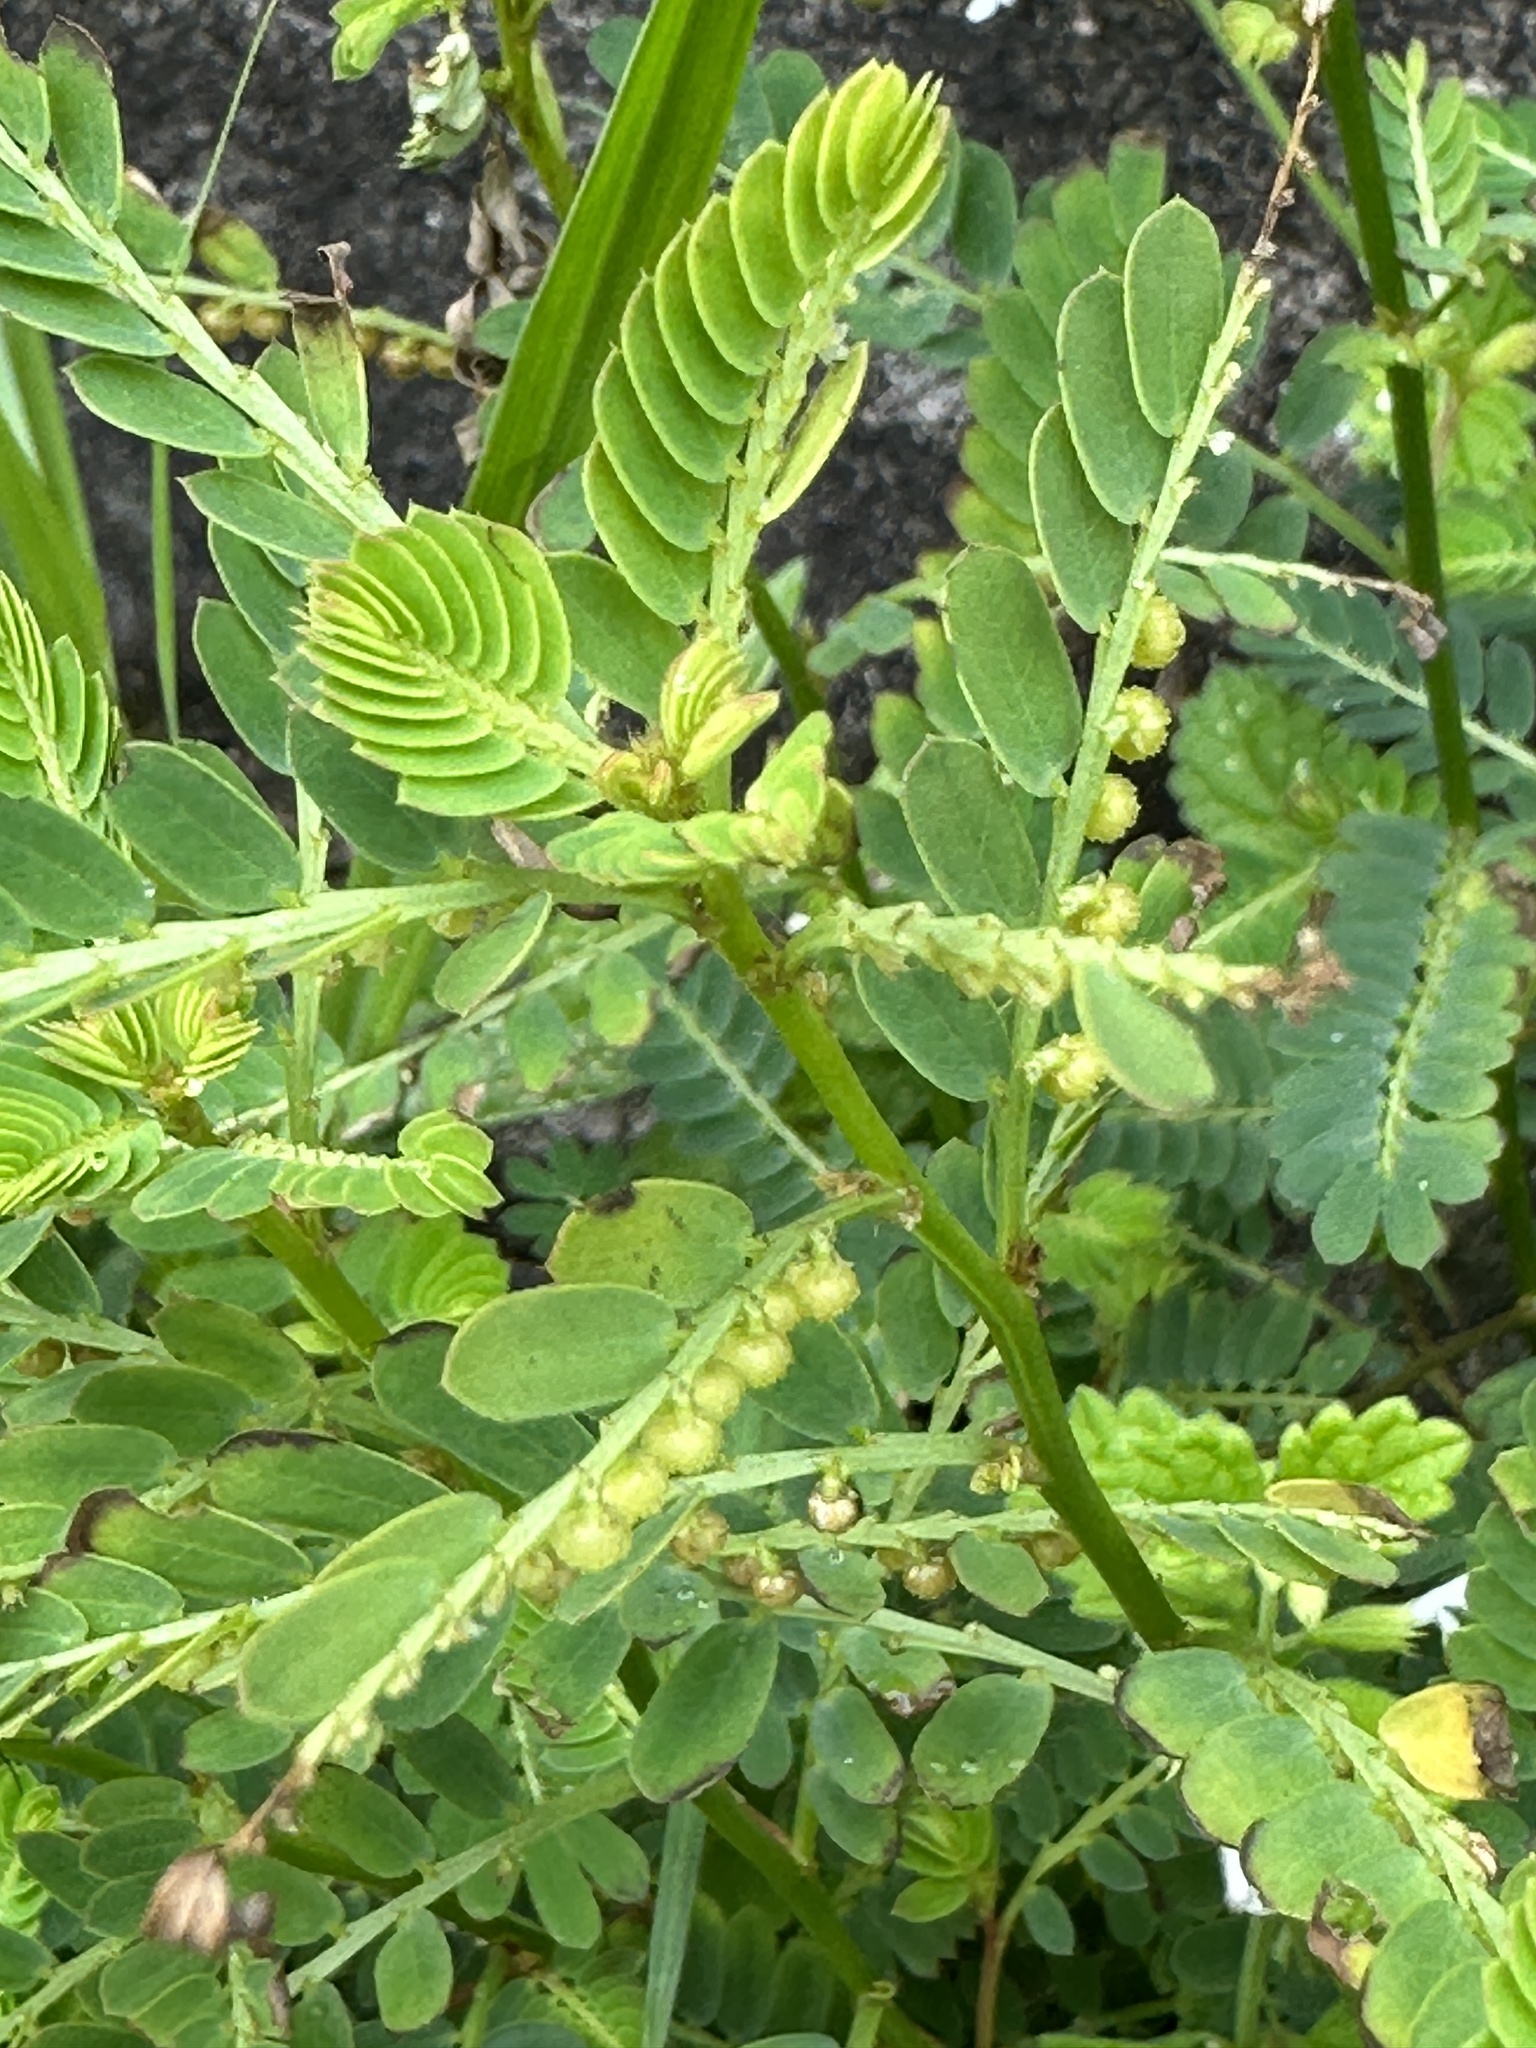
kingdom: Plantae
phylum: Tracheophyta
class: Magnoliopsida
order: Malpighiales
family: Phyllanthaceae
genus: Phyllanthus
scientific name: Phyllanthus urinaria
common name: Chamber bitter
